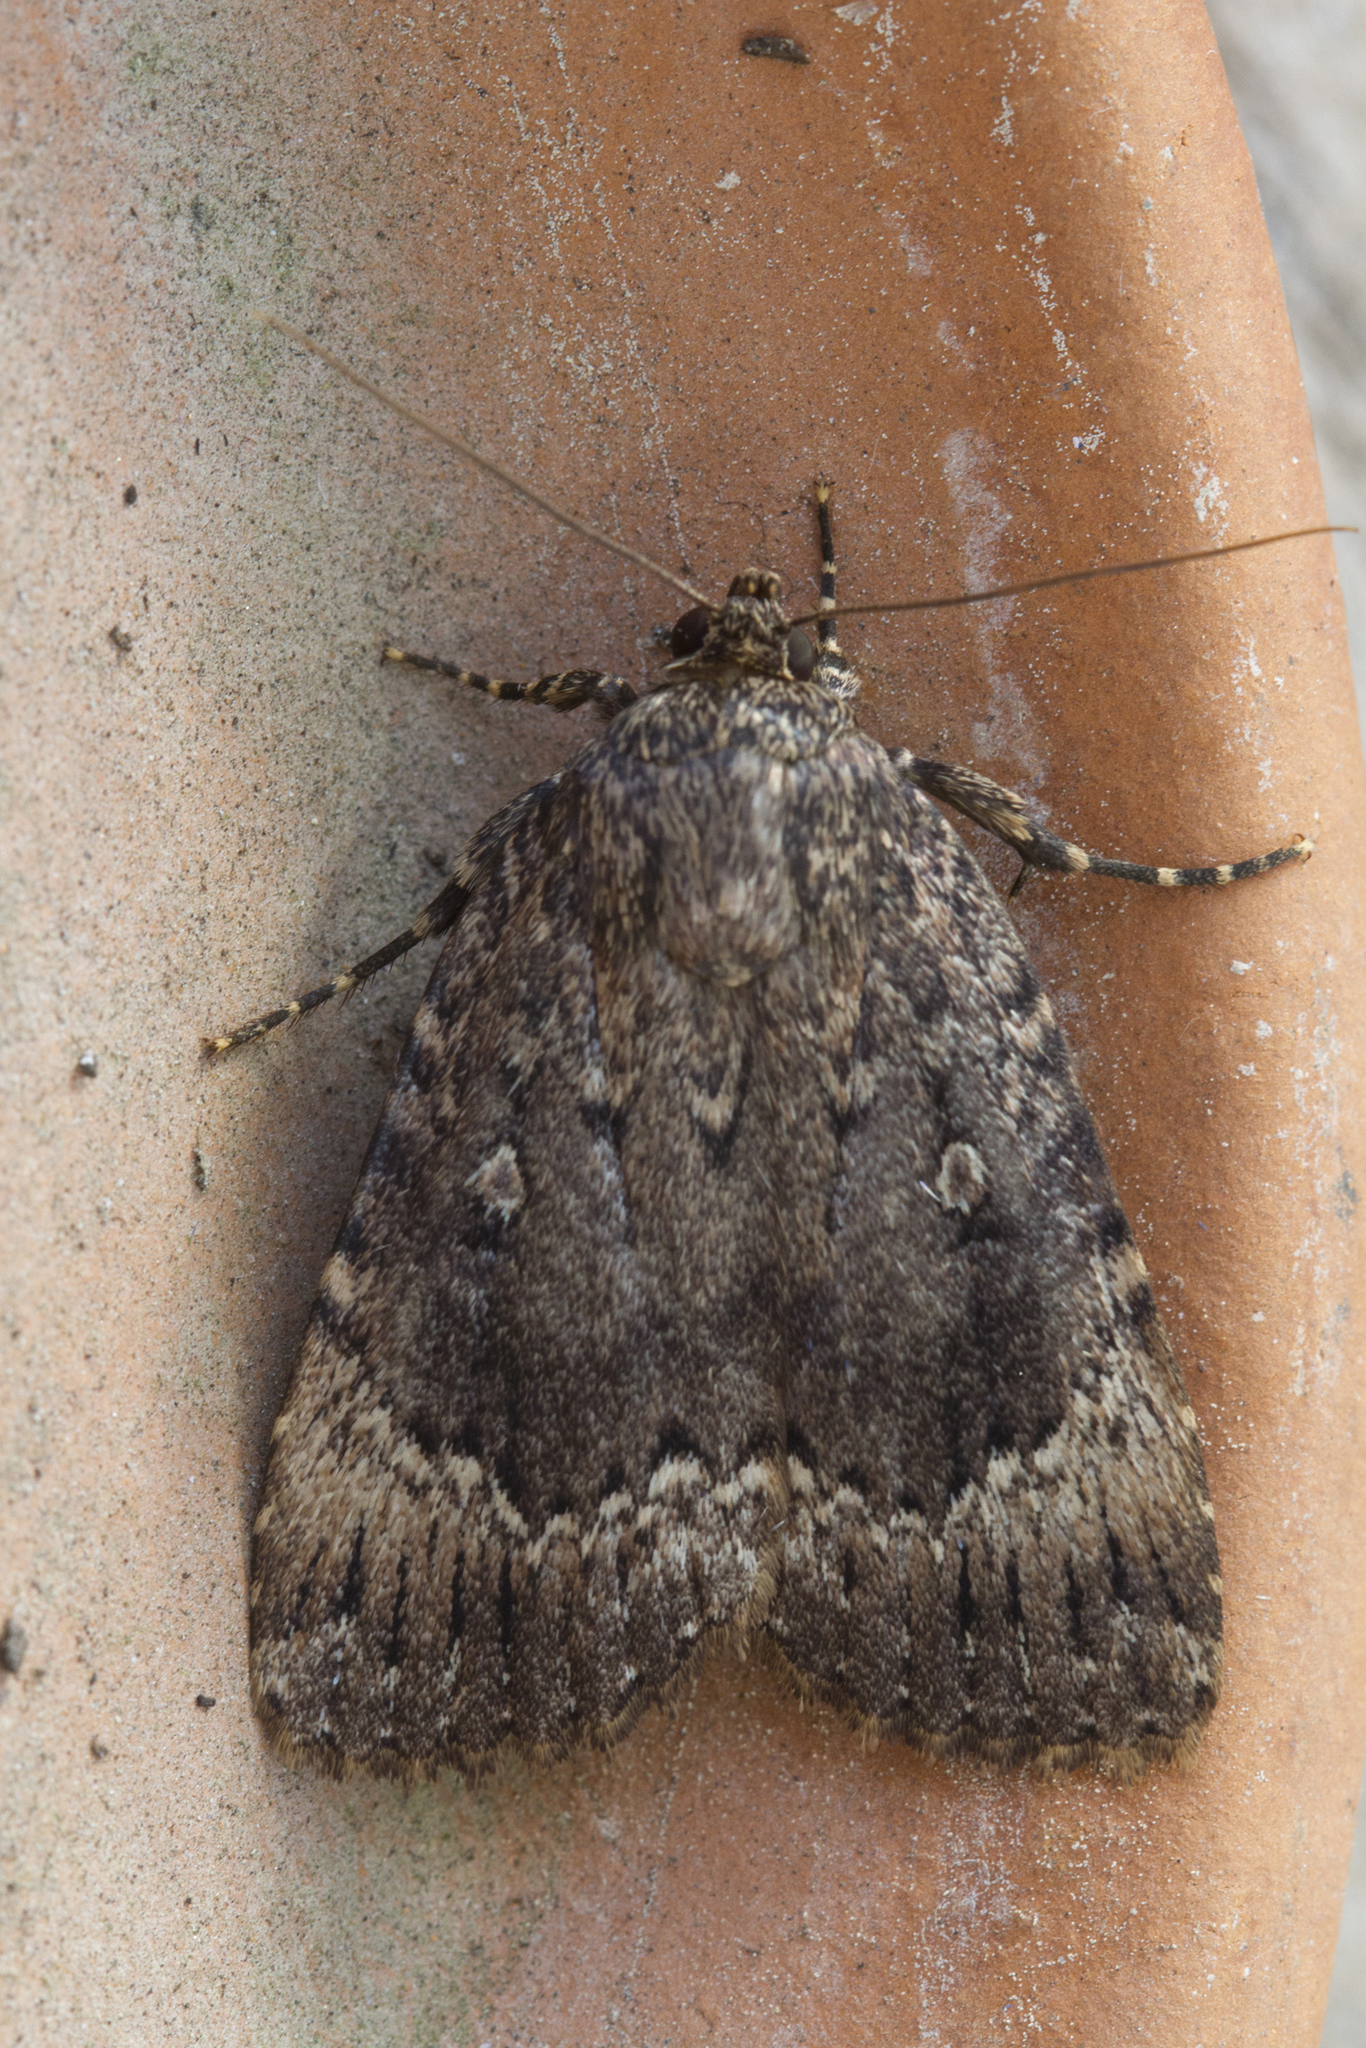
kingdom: Animalia
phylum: Arthropoda
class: Insecta
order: Lepidoptera
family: Noctuidae
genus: Amphipyra
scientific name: Amphipyra pyramidoides
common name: American copper underwing
